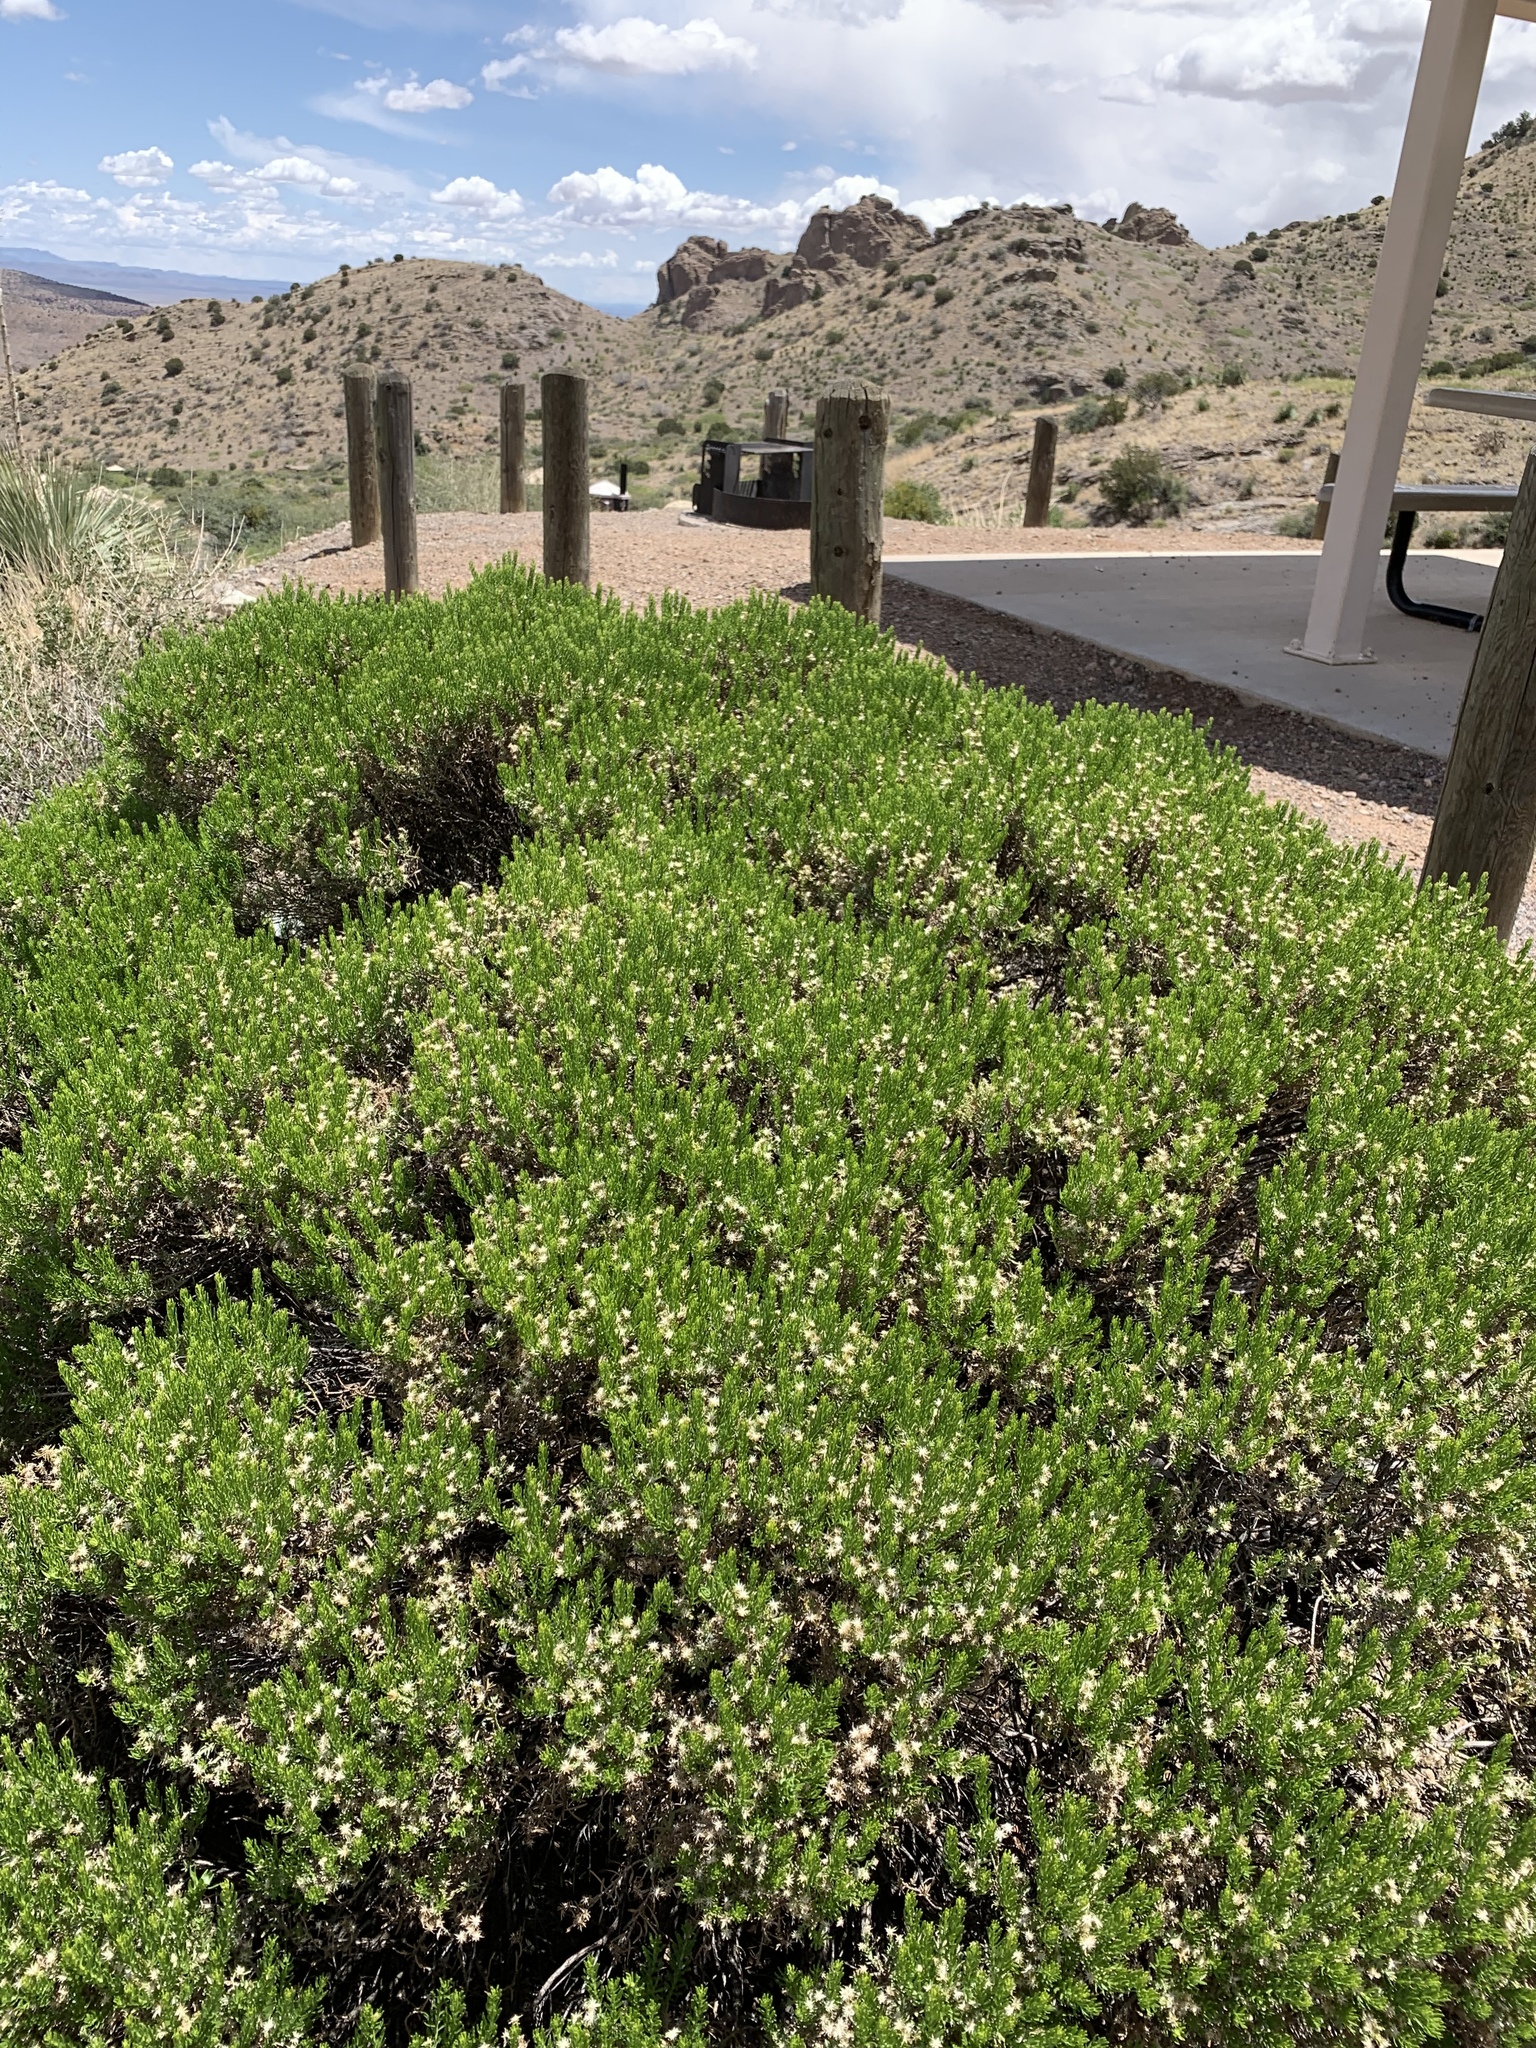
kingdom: Plantae
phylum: Tracheophyta
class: Magnoliopsida
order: Asterales
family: Asteraceae
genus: Ericameria
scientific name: Ericameria laricifolia
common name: Turpentine-bush
